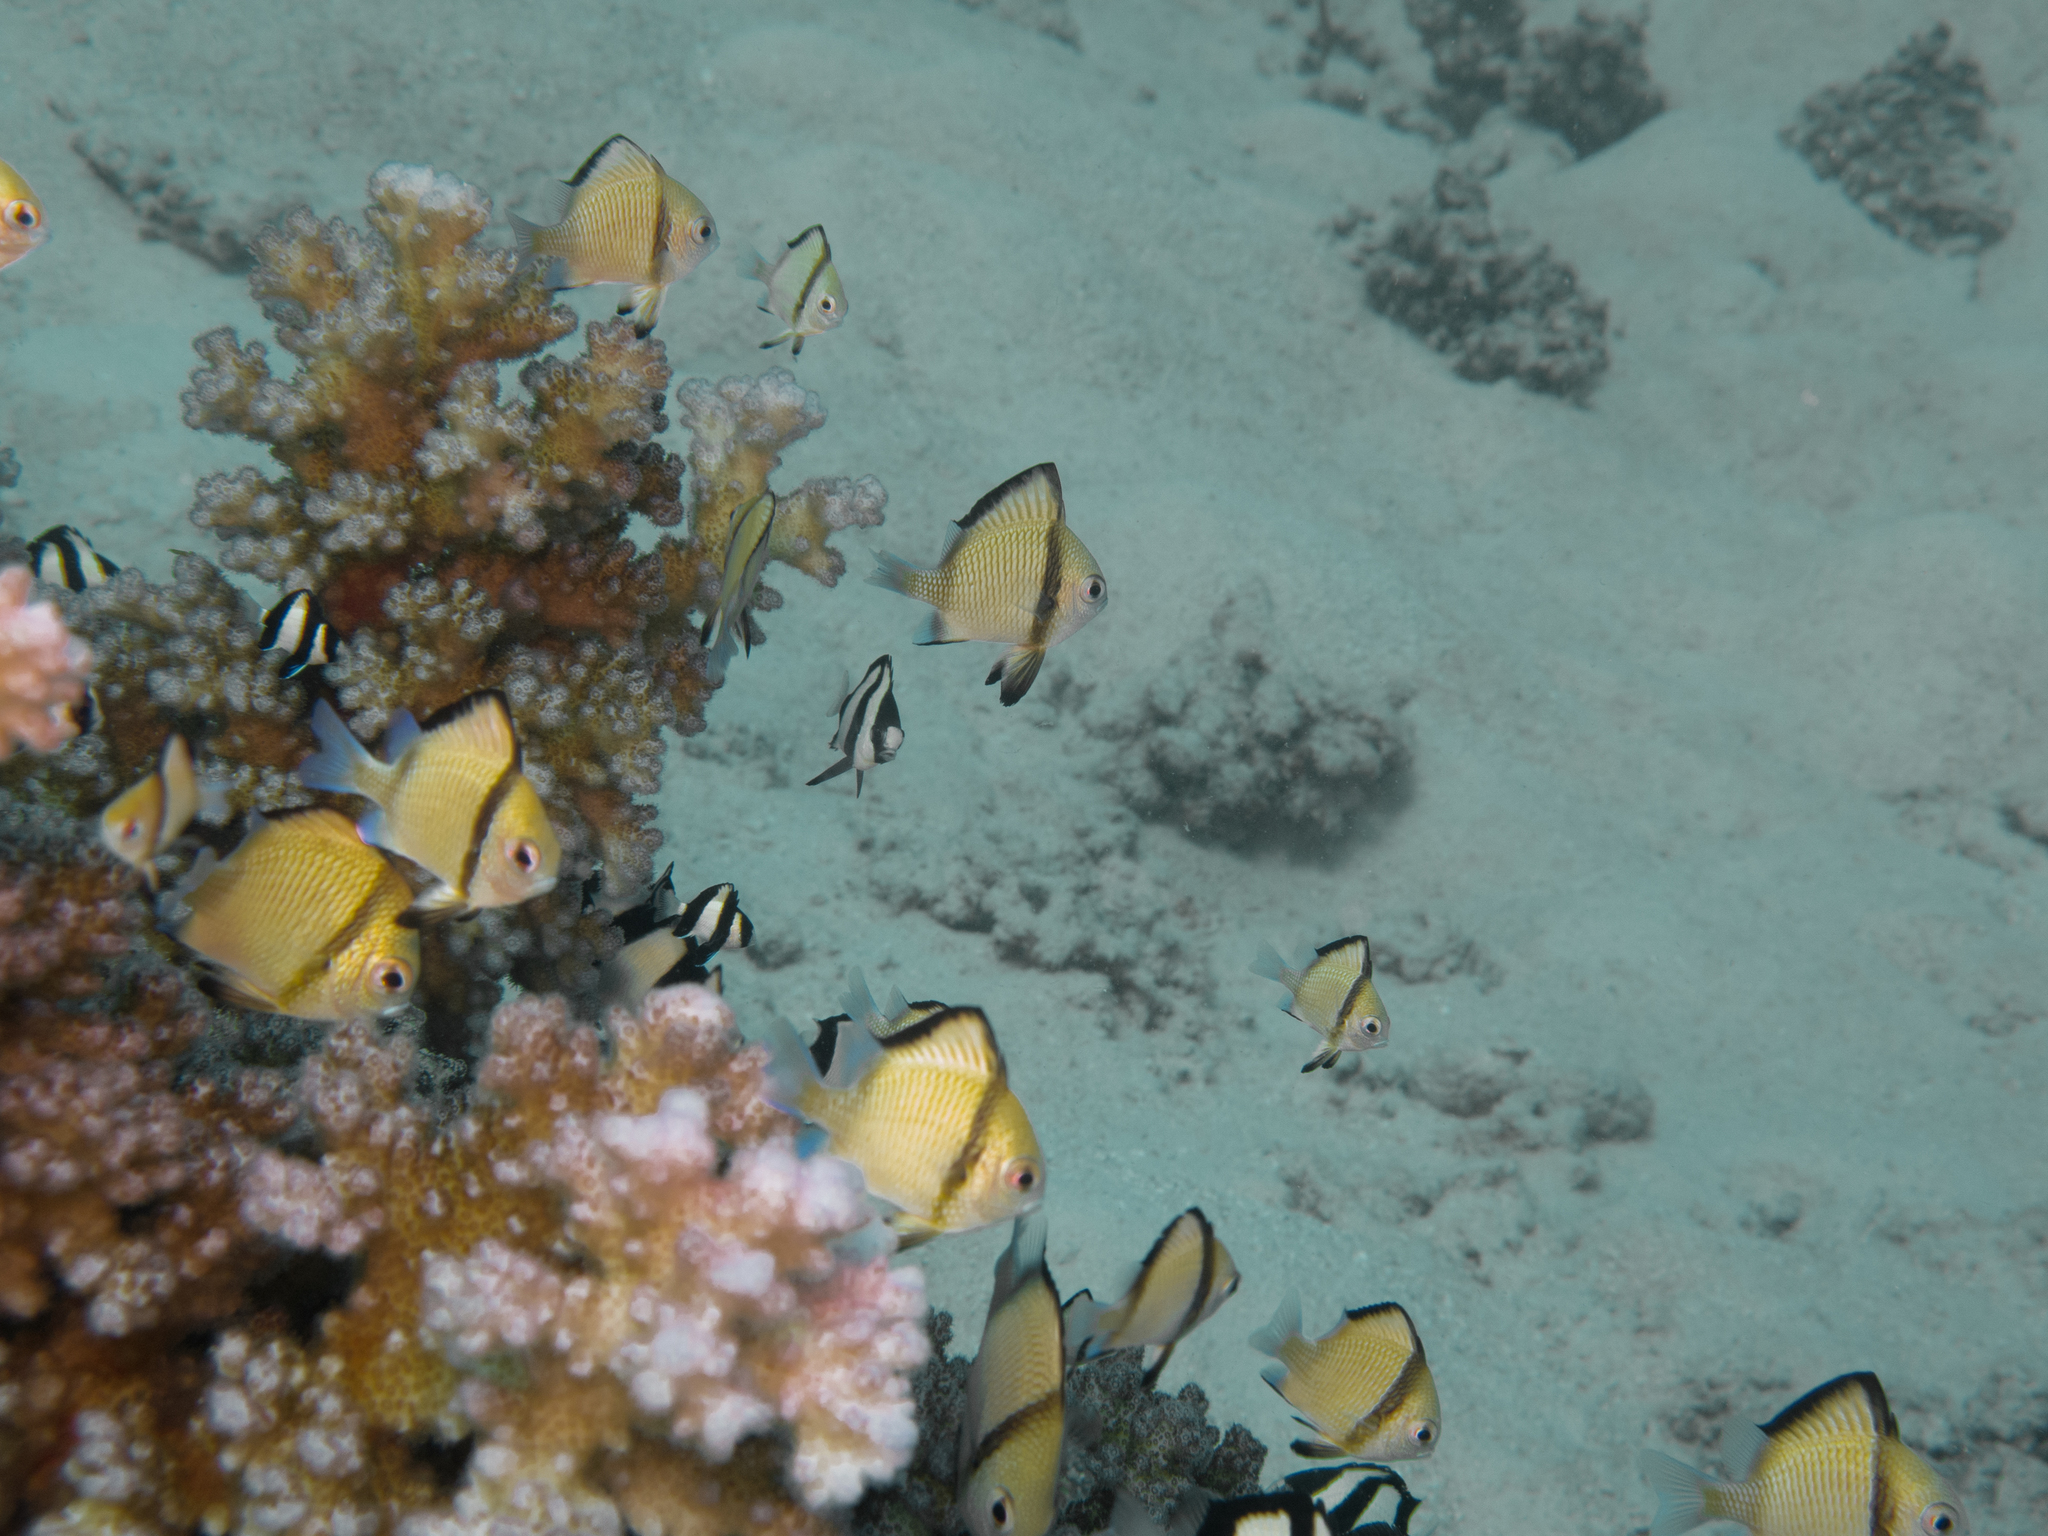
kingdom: Animalia
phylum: Chordata
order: Perciformes
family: Pomacentridae
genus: Dascyllus
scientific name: Dascyllus reticulatus
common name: Reticulated dascyllus
